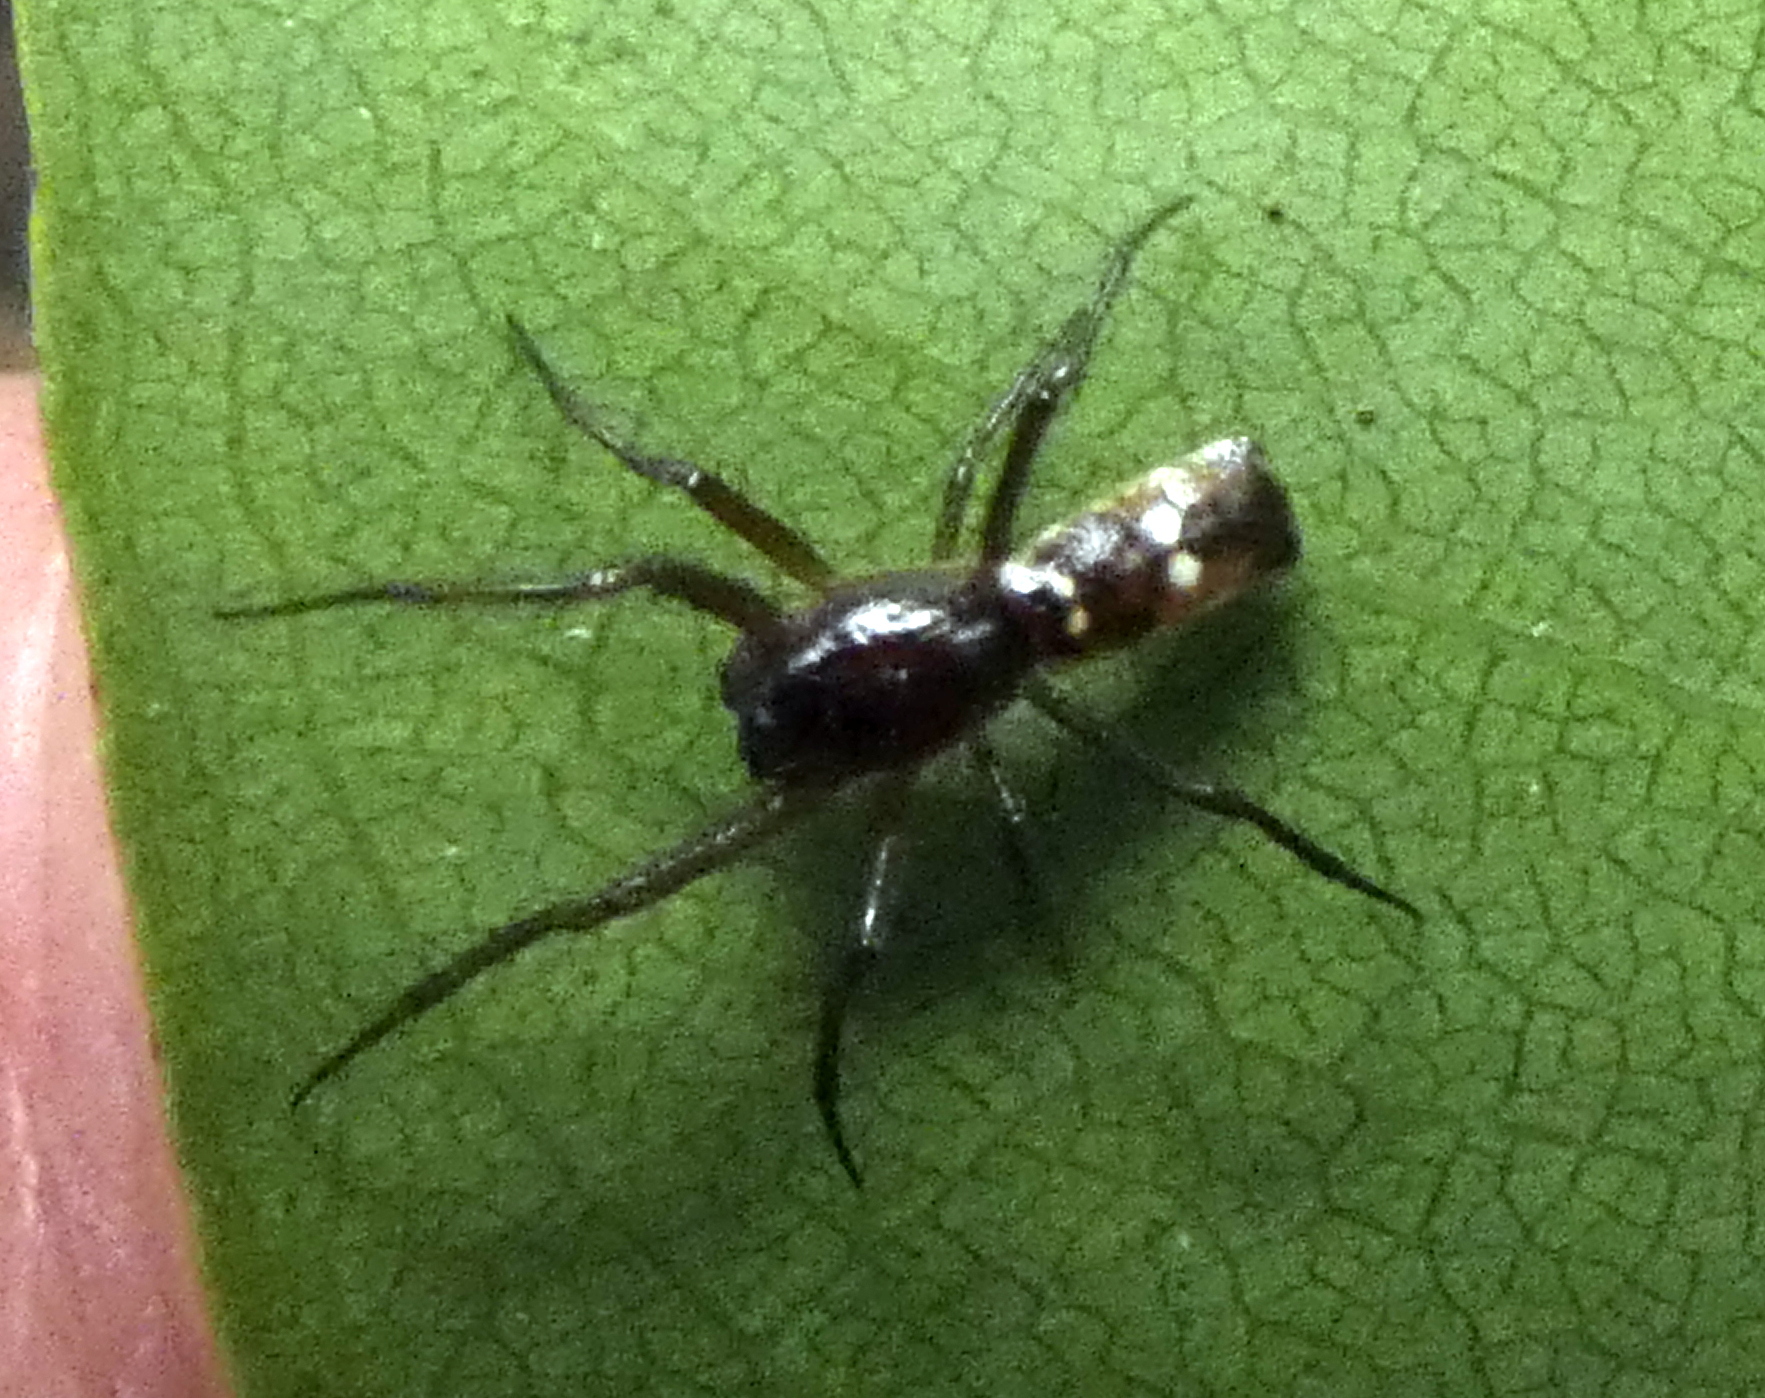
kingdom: Animalia
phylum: Arthropoda
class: Arachnida
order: Araneae
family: Araneidae
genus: Micrathena
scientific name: Micrathena fissispina
